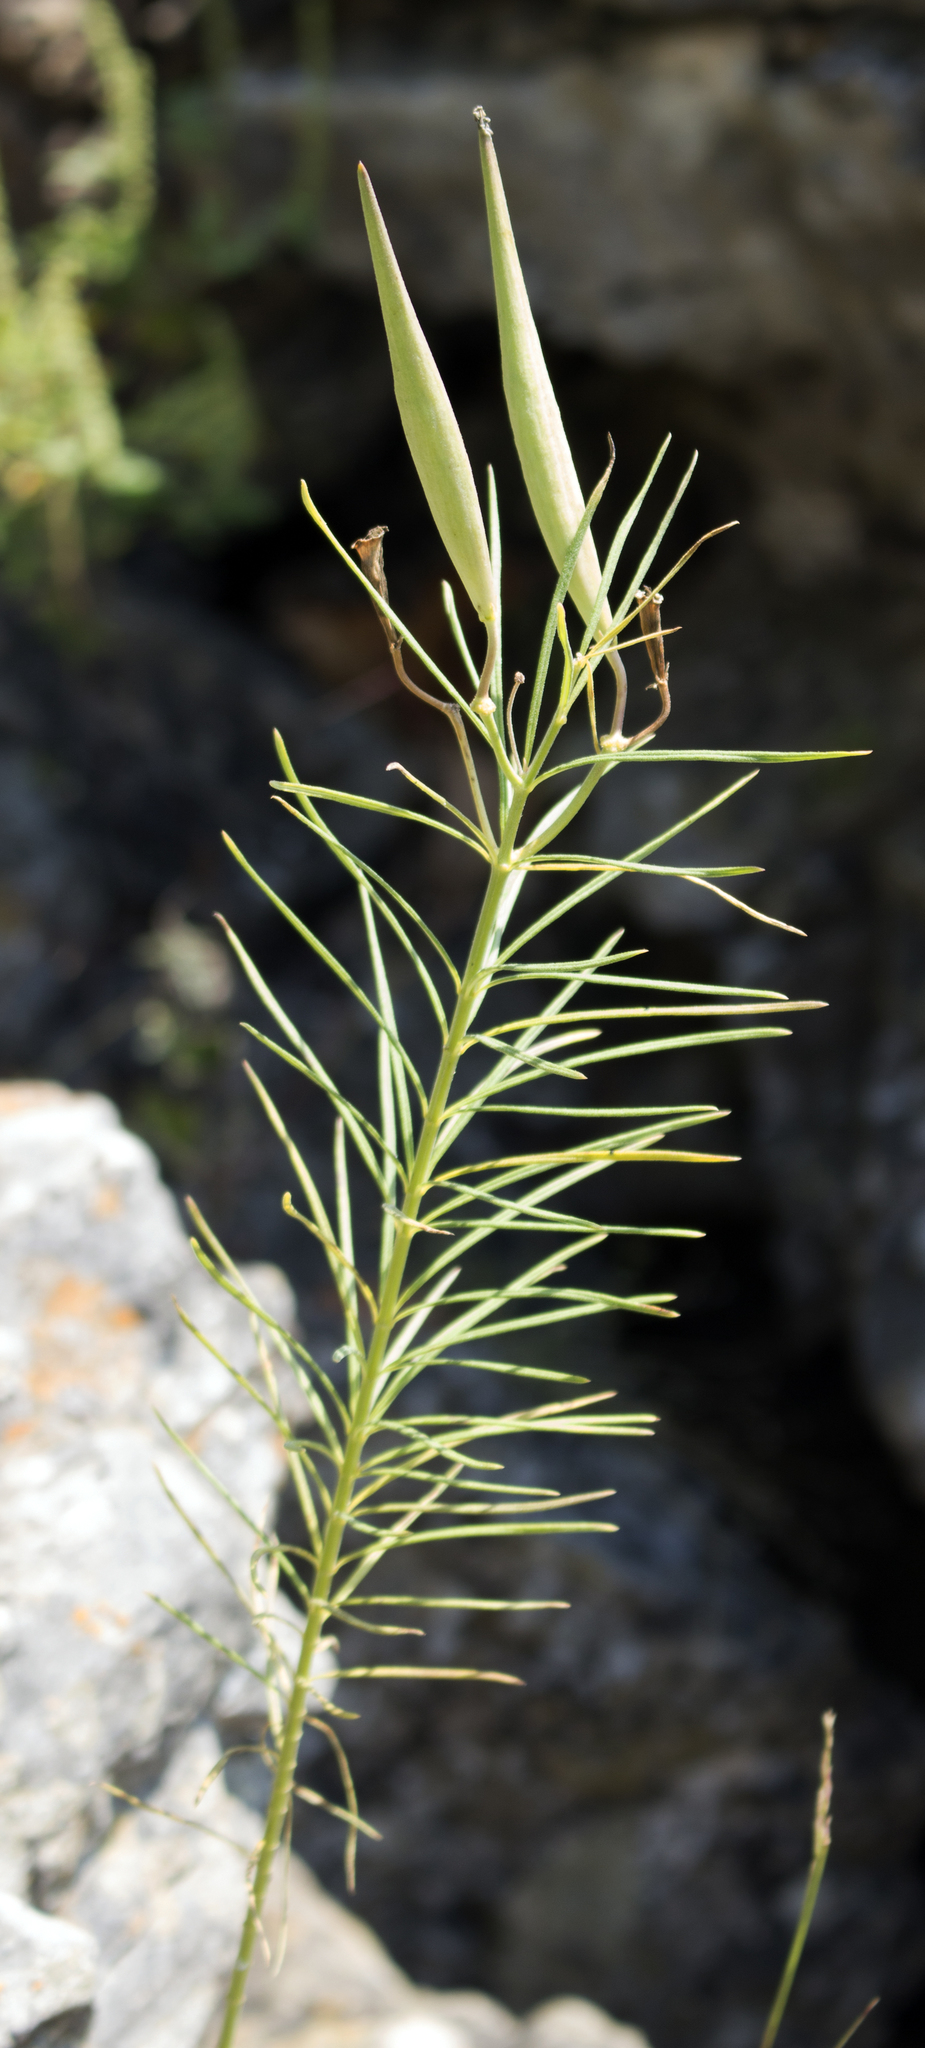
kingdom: Plantae
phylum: Tracheophyta
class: Magnoliopsida
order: Gentianales
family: Apocynaceae
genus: Asclepias
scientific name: Asclepias verticillata
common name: Eastern whorled milkweed
